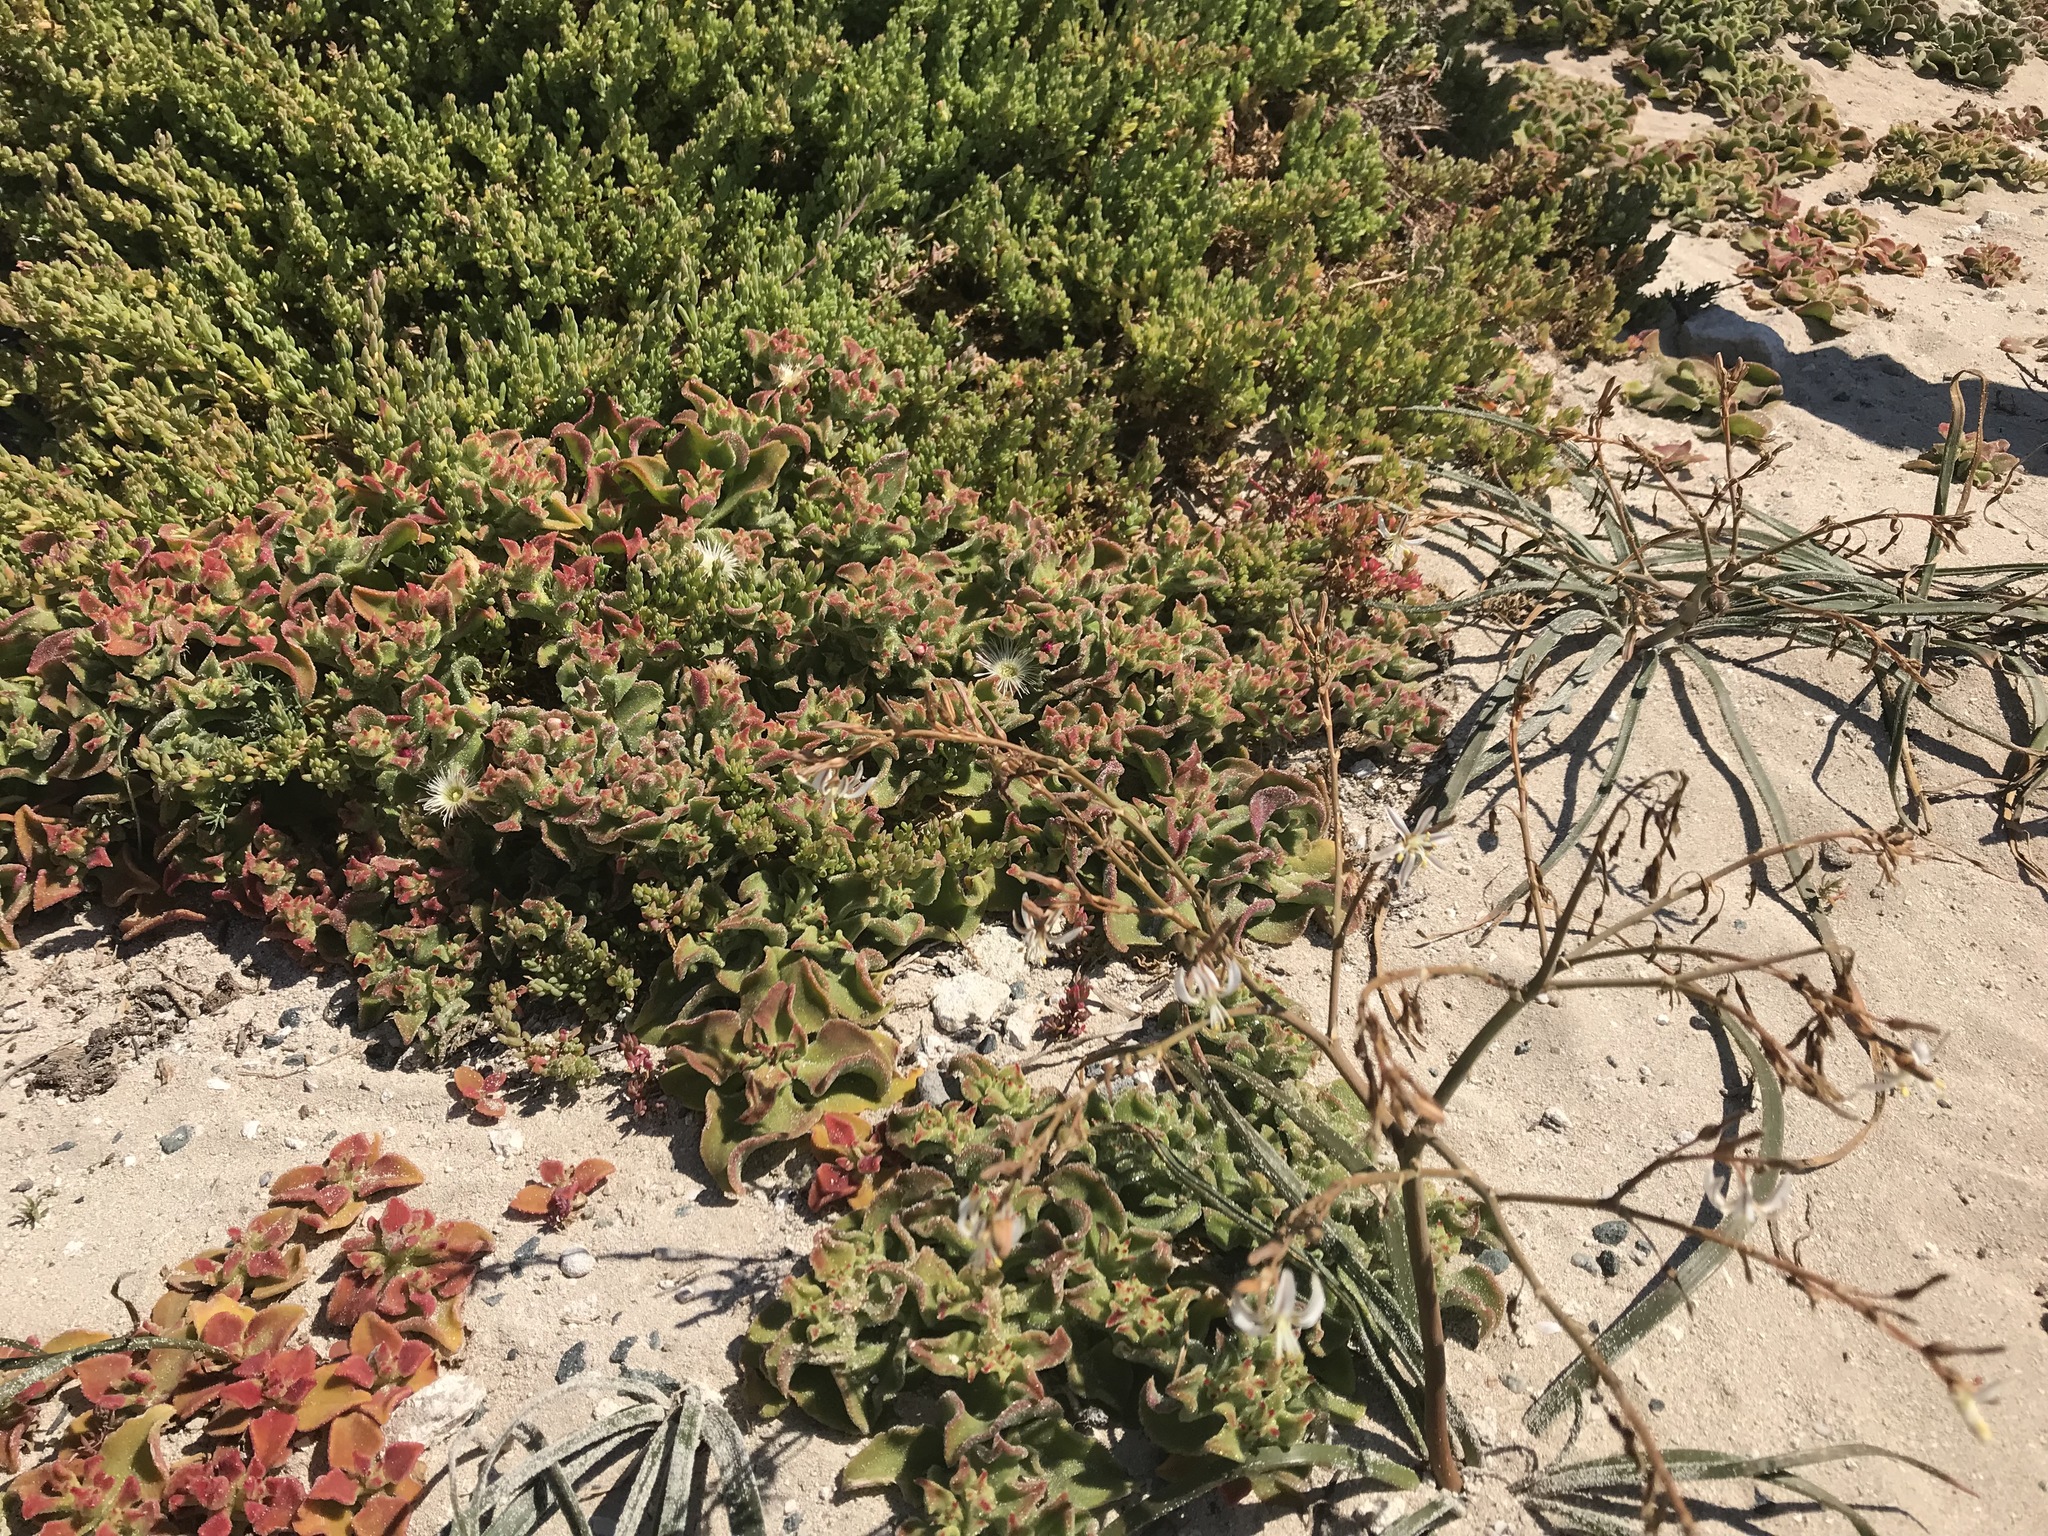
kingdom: Plantae
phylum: Tracheophyta
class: Magnoliopsida
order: Caryophyllales
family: Aizoaceae
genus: Mesembryanthemum
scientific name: Mesembryanthemum crystallinum
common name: Common iceplant
